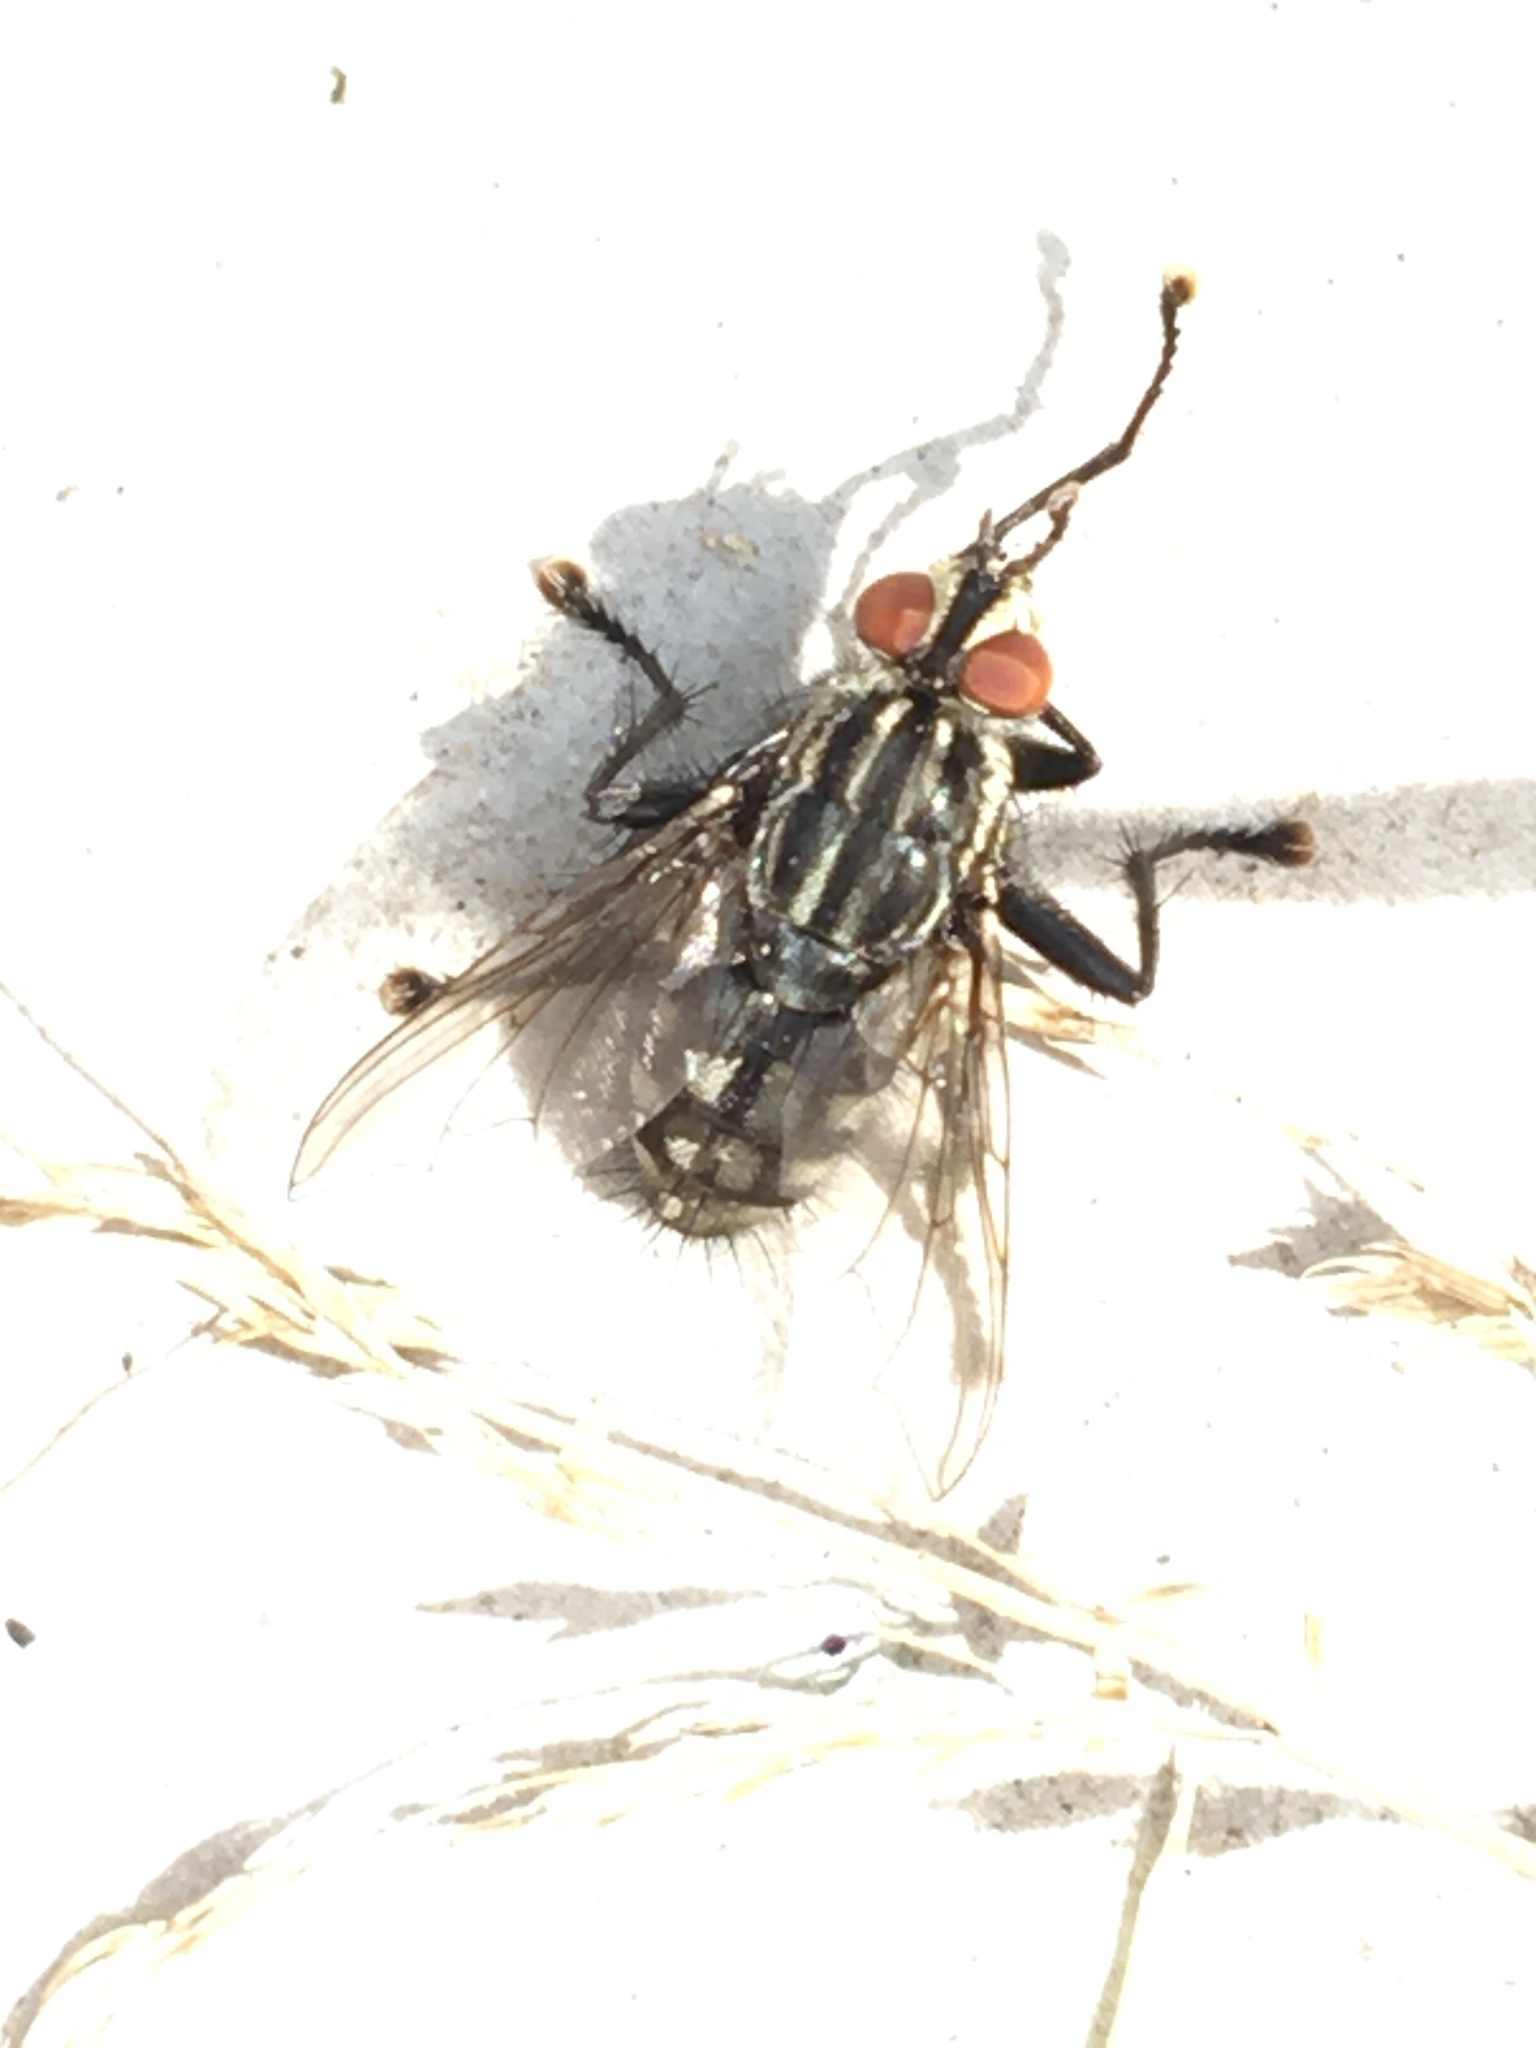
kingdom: Animalia
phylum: Arthropoda
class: Insecta
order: Diptera
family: Sarcophagidae
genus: Sarcophaga
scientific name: Sarcophaga
